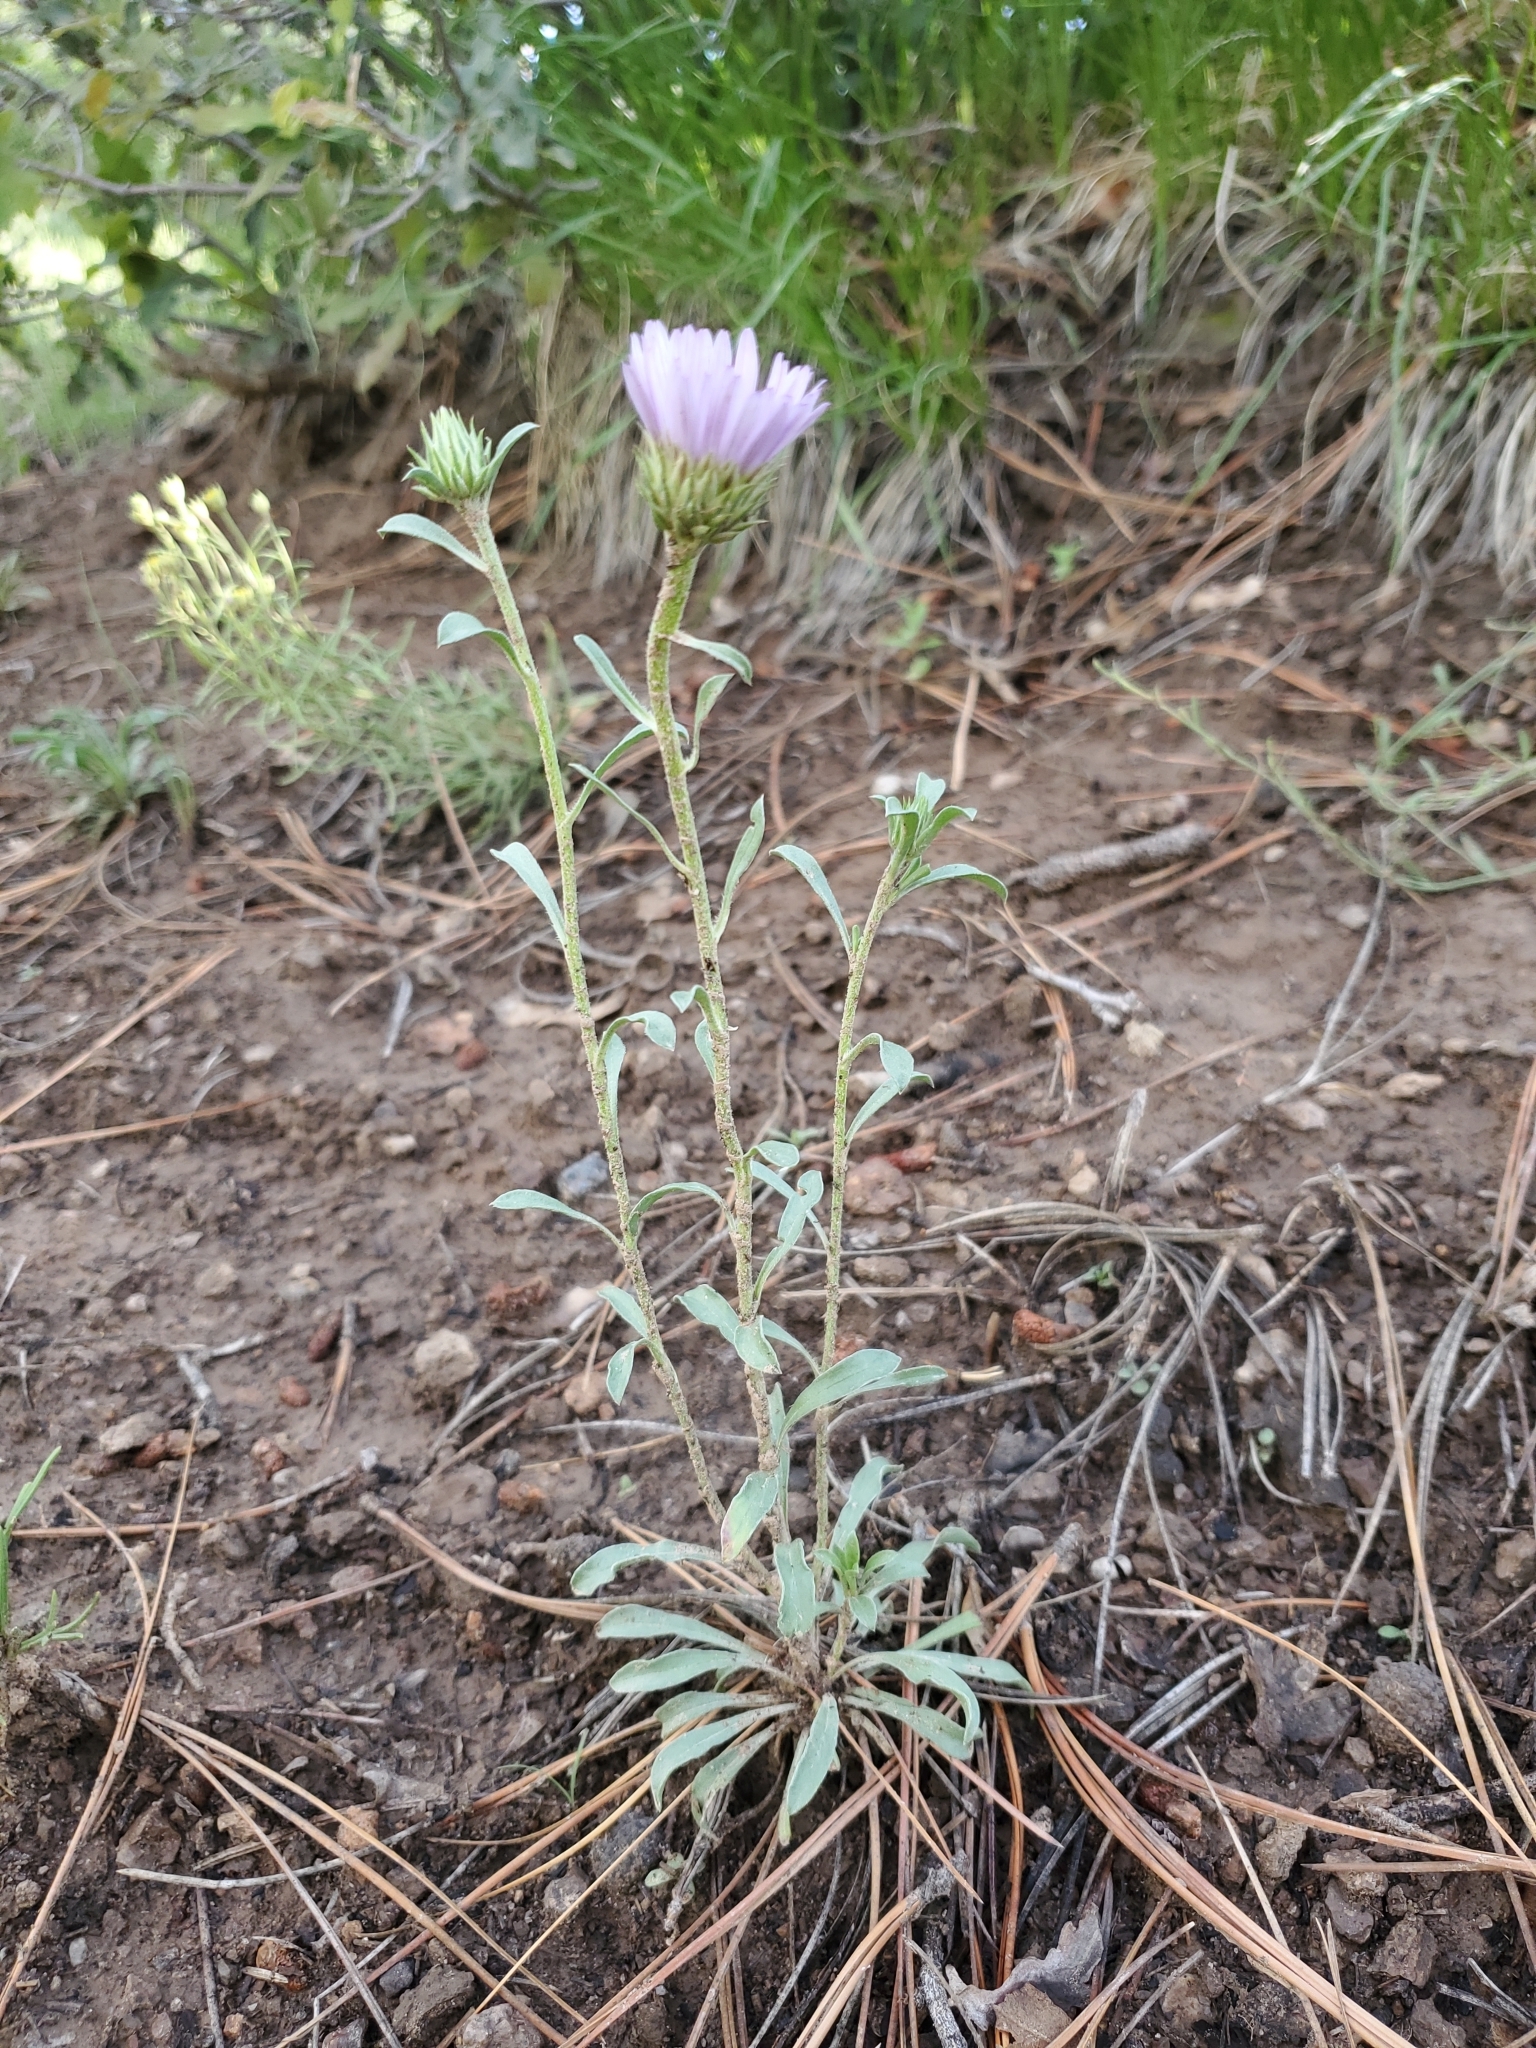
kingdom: Plantae
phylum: Tracheophyta
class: Magnoliopsida
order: Asterales
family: Asteraceae
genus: Townsendia
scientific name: Townsendia eximia
